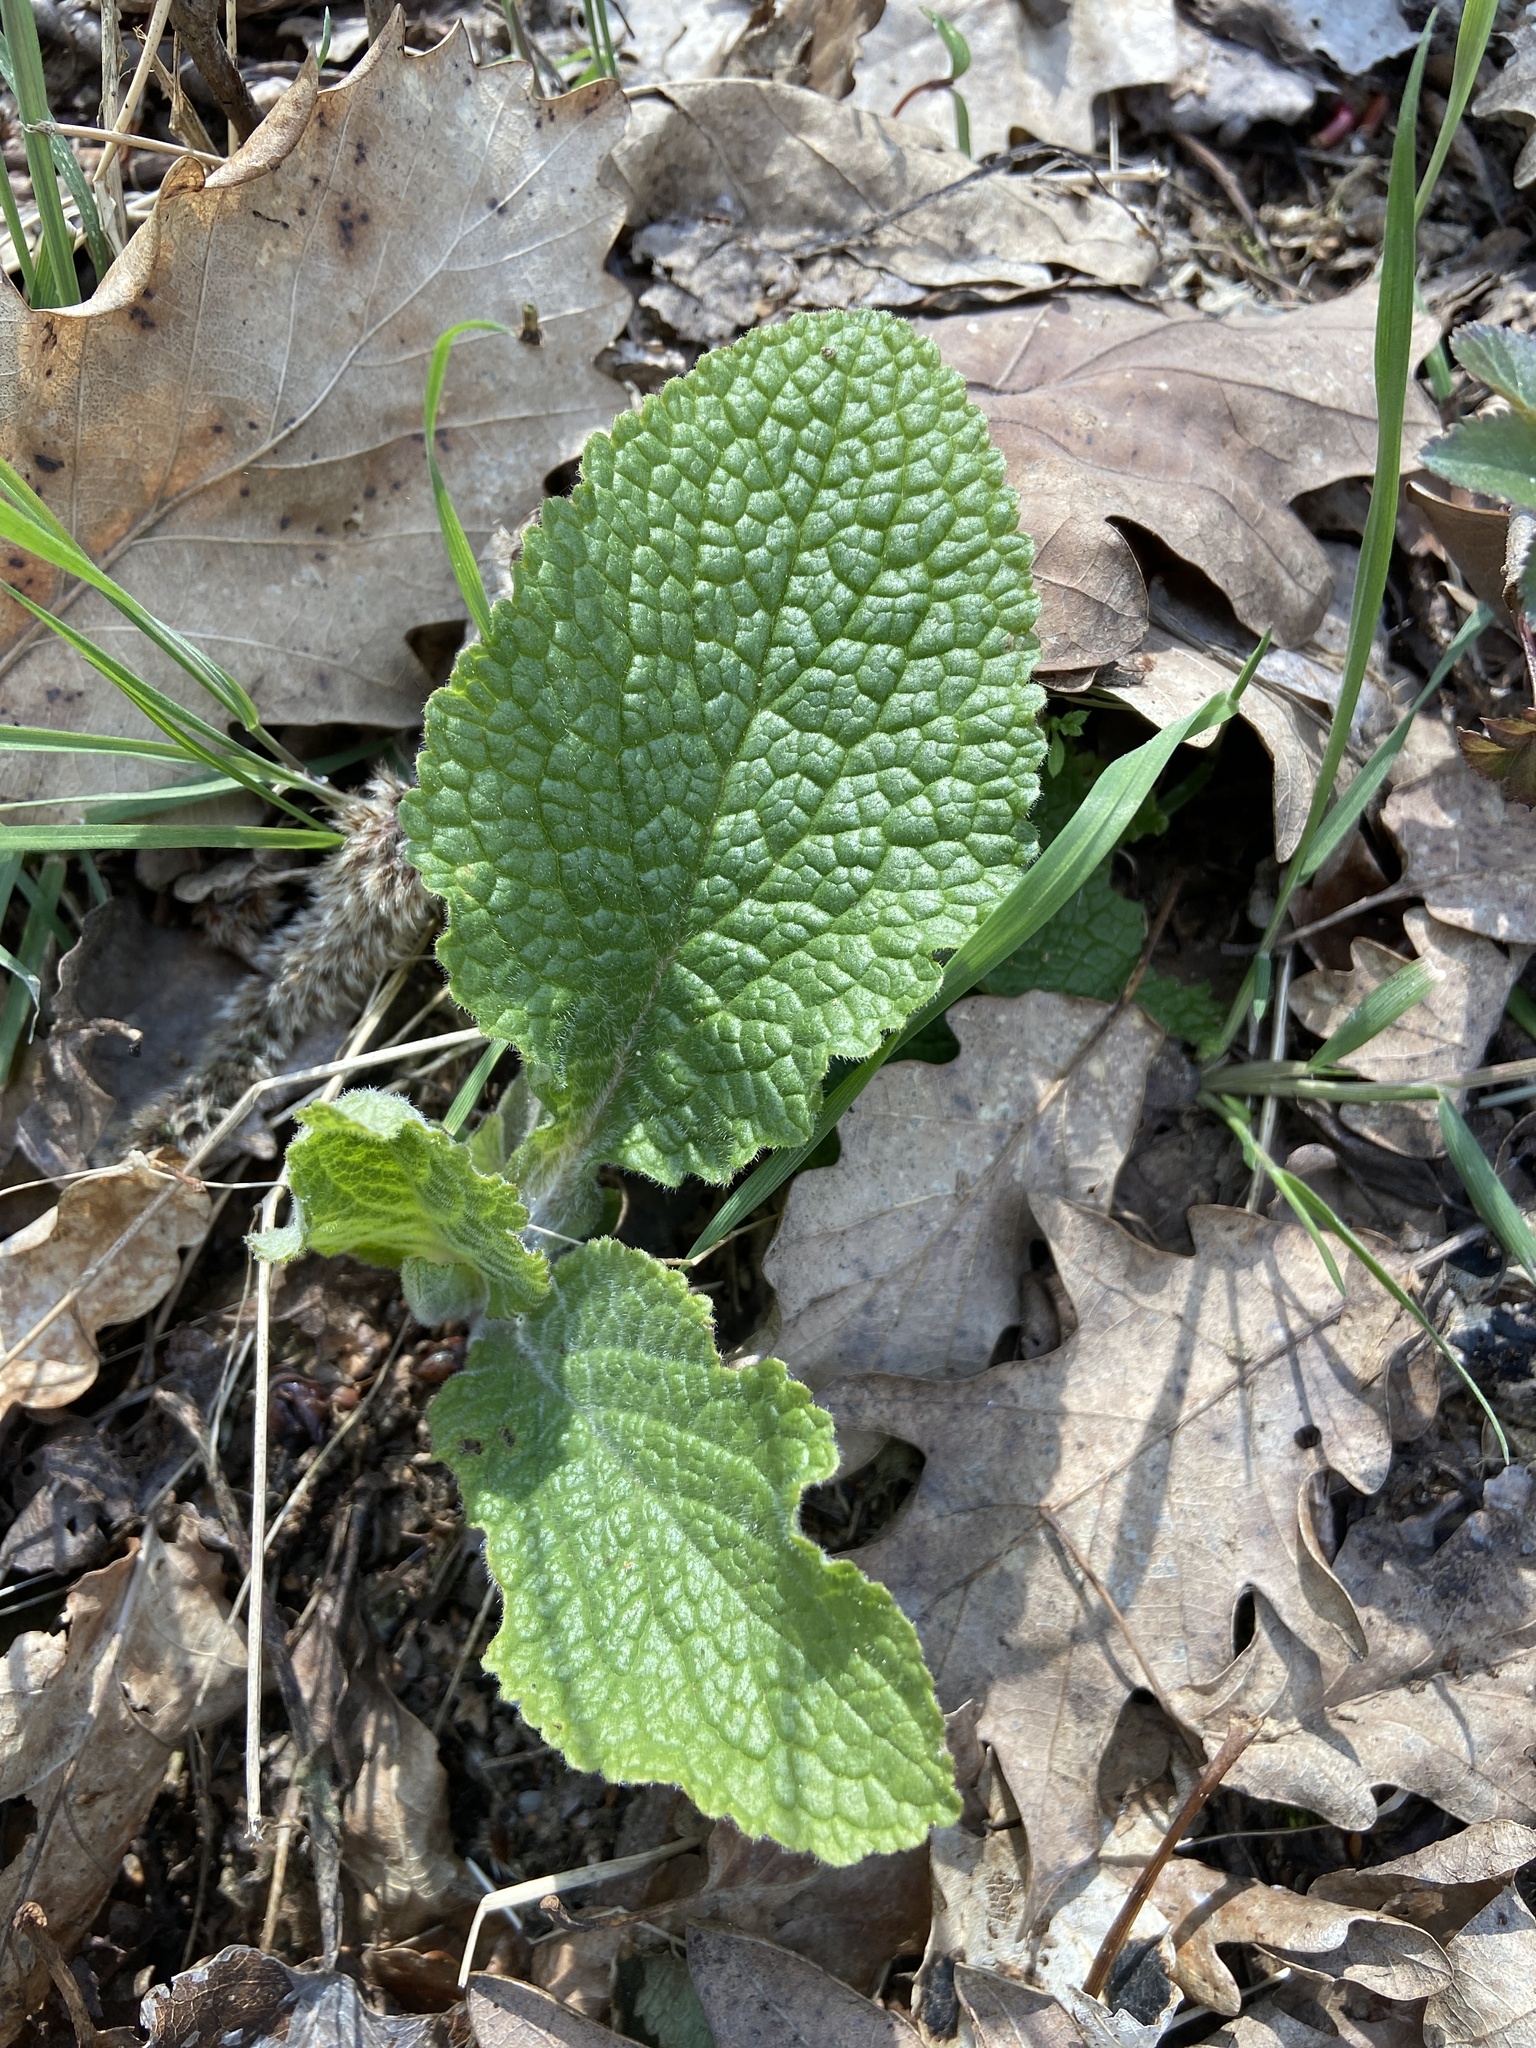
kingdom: Plantae
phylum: Tracheophyta
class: Magnoliopsida
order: Lamiales
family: Plantaginaceae
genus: Digitalis
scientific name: Digitalis purpurea
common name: Foxglove
